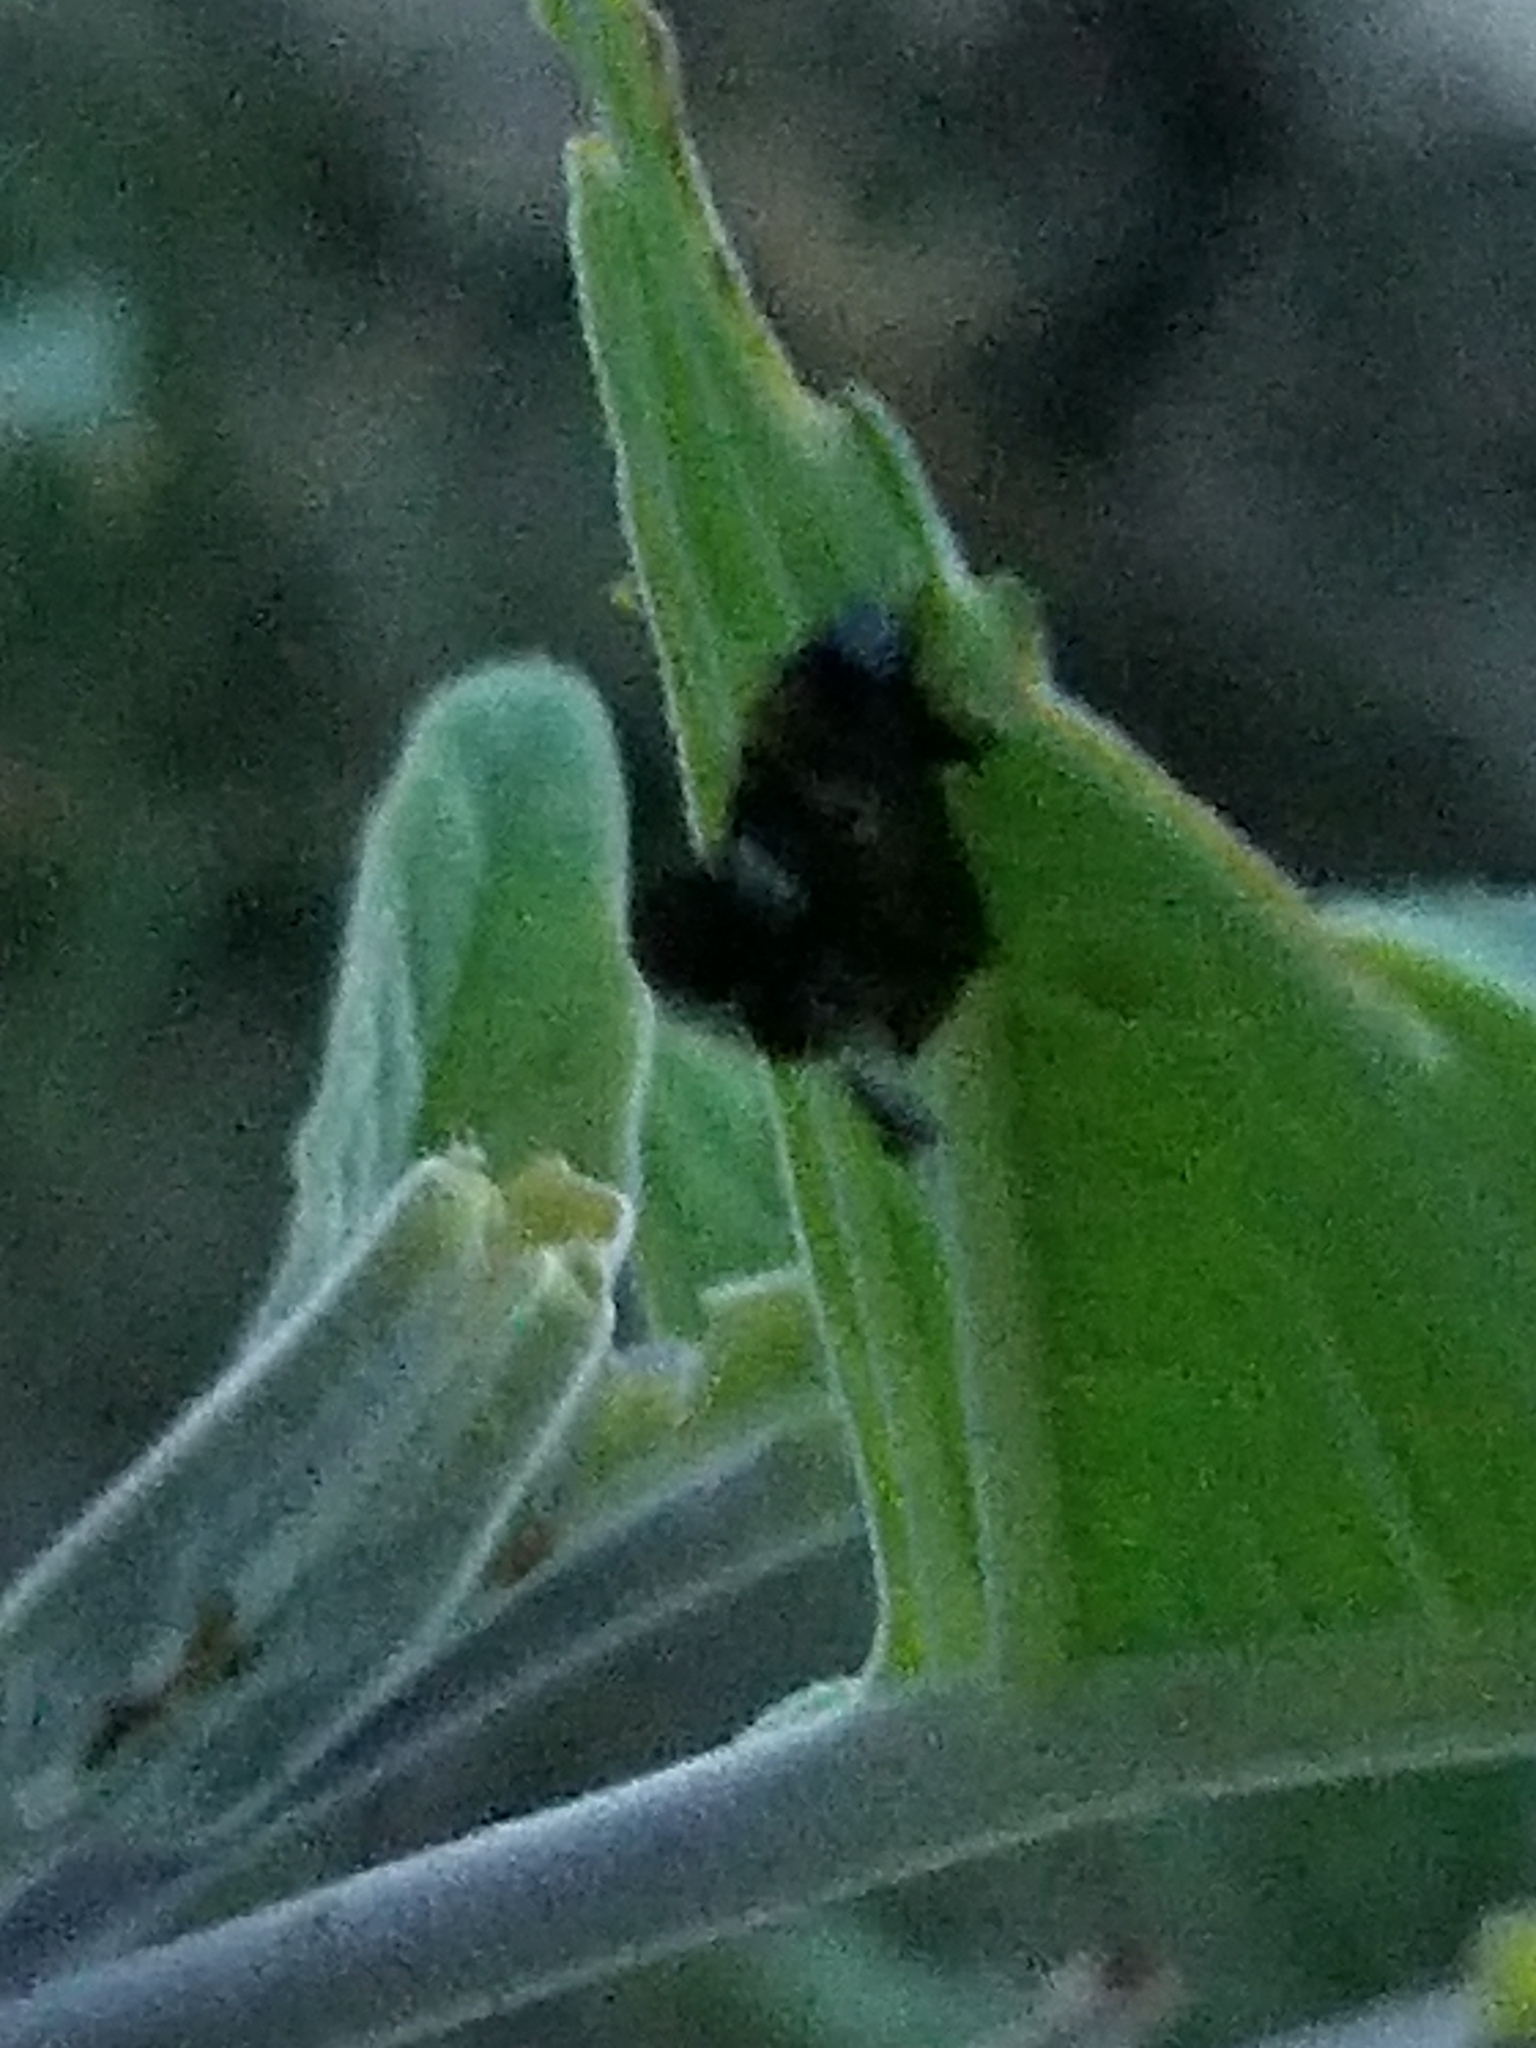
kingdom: Animalia
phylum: Arthropoda
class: Insecta
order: Coleoptera
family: Chrysomelidae
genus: Lema
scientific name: Lema daturaphila
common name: Leaf beetle
